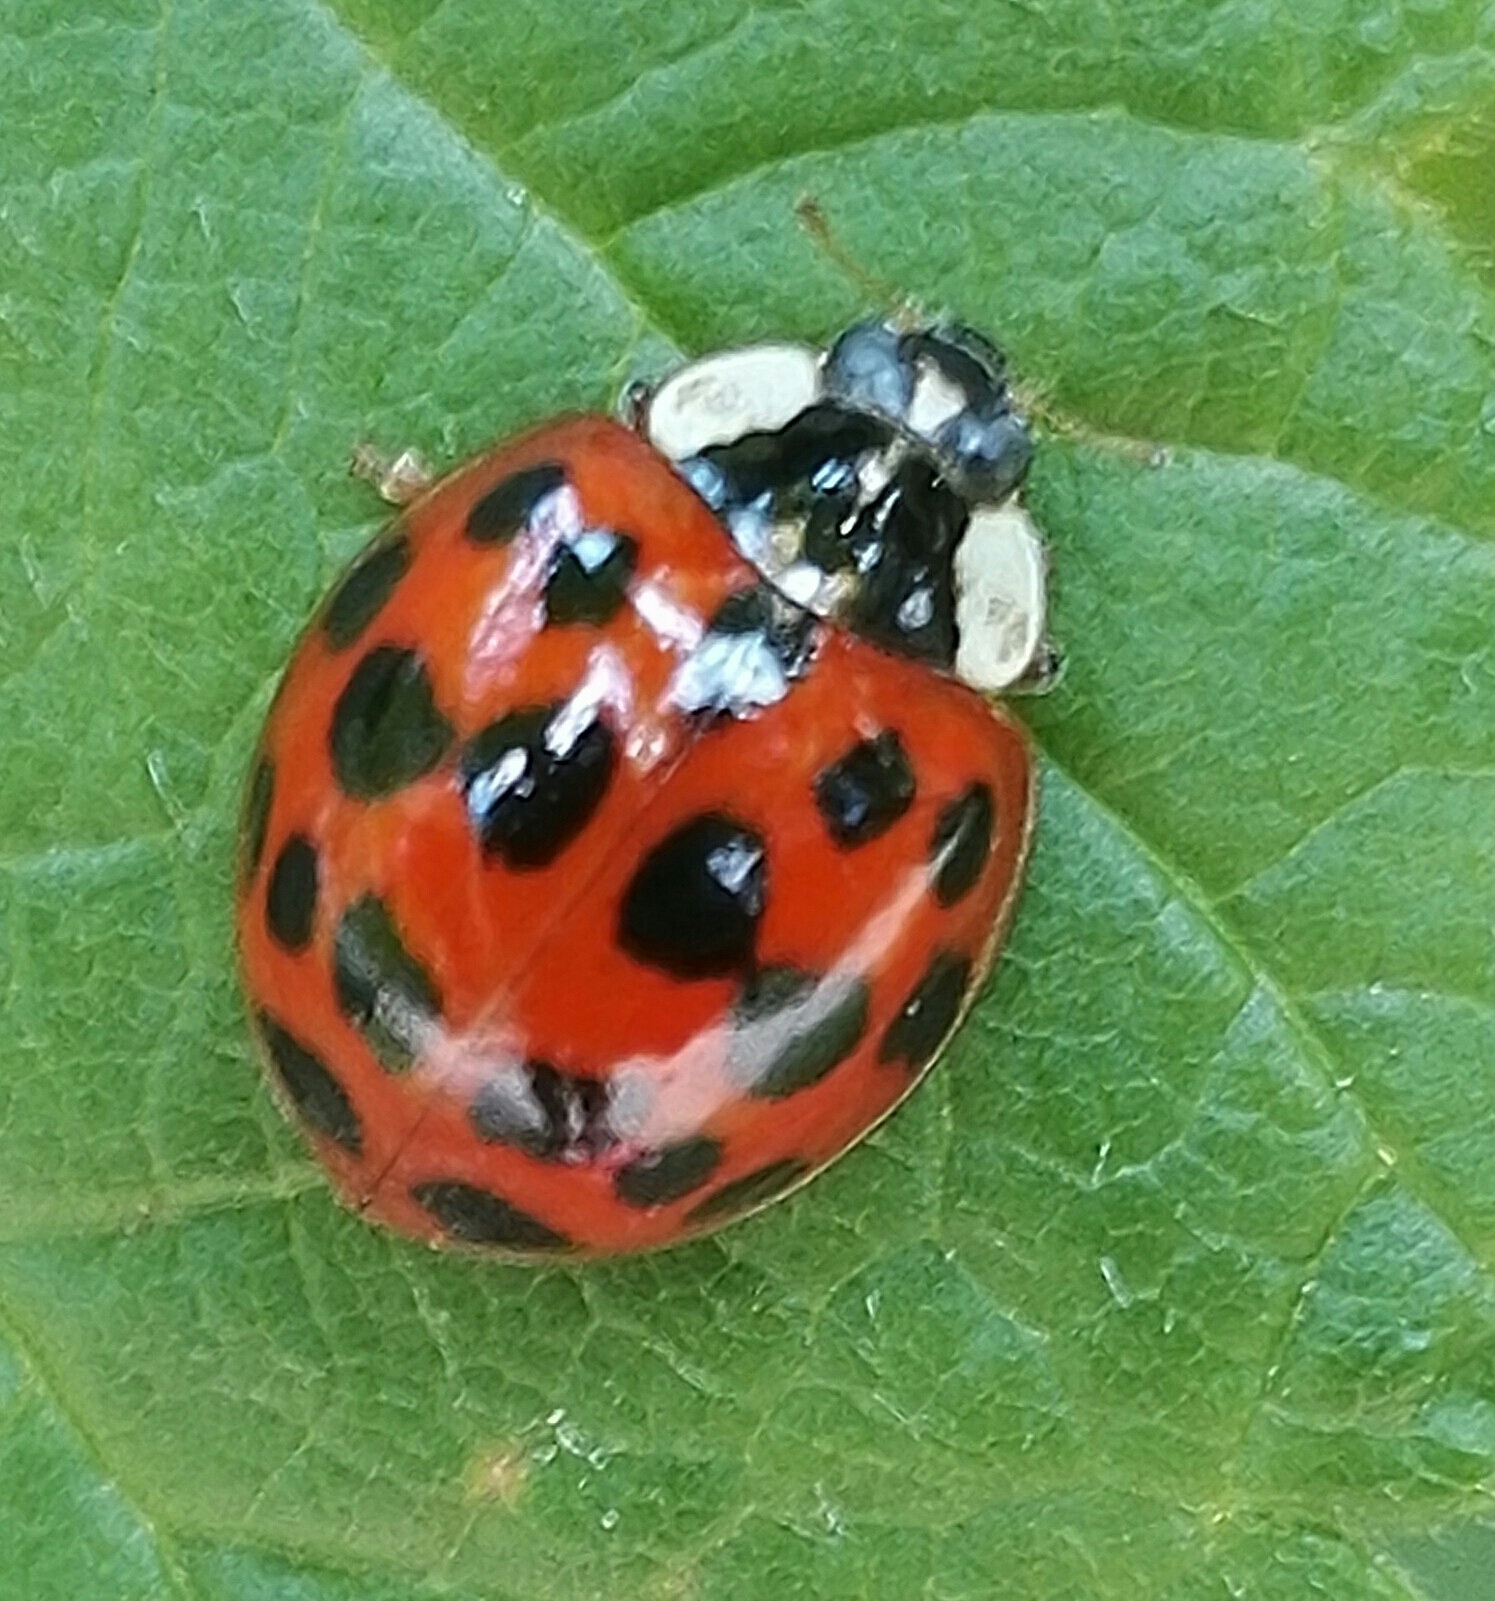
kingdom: Animalia
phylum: Arthropoda
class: Insecta
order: Coleoptera
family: Coccinellidae
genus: Harmonia
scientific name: Harmonia axyridis
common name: Harlequin ladybird
